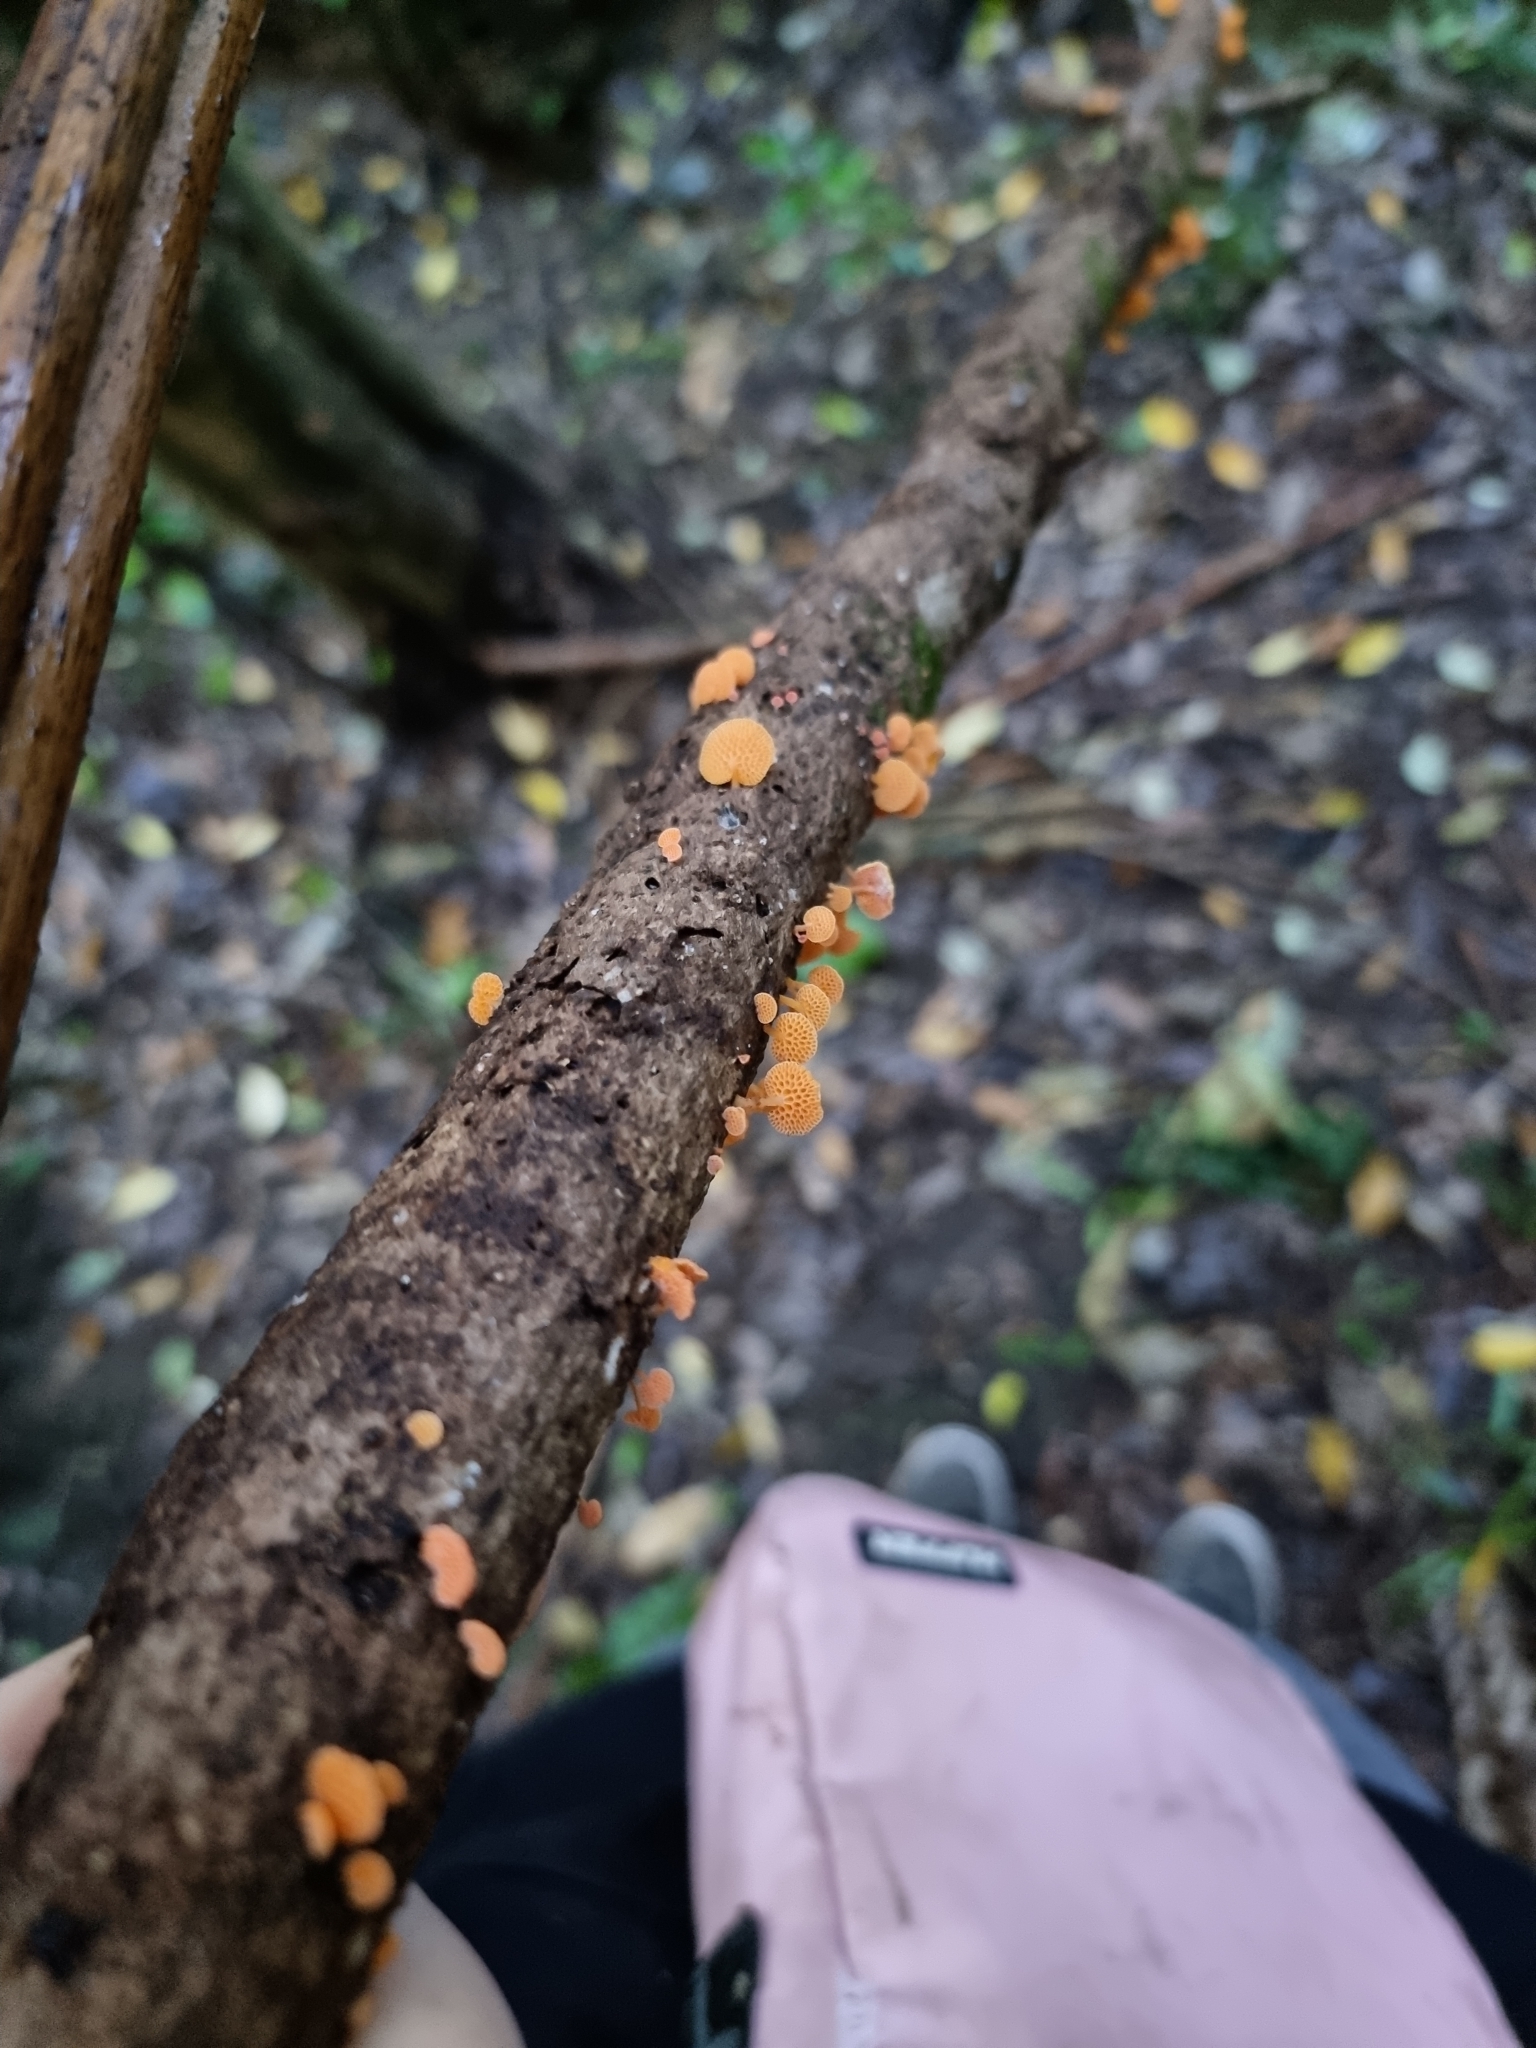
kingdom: Fungi
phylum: Basidiomycota
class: Agaricomycetes
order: Agaricales
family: Mycenaceae
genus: Favolaschia
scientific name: Favolaschia claudopus
